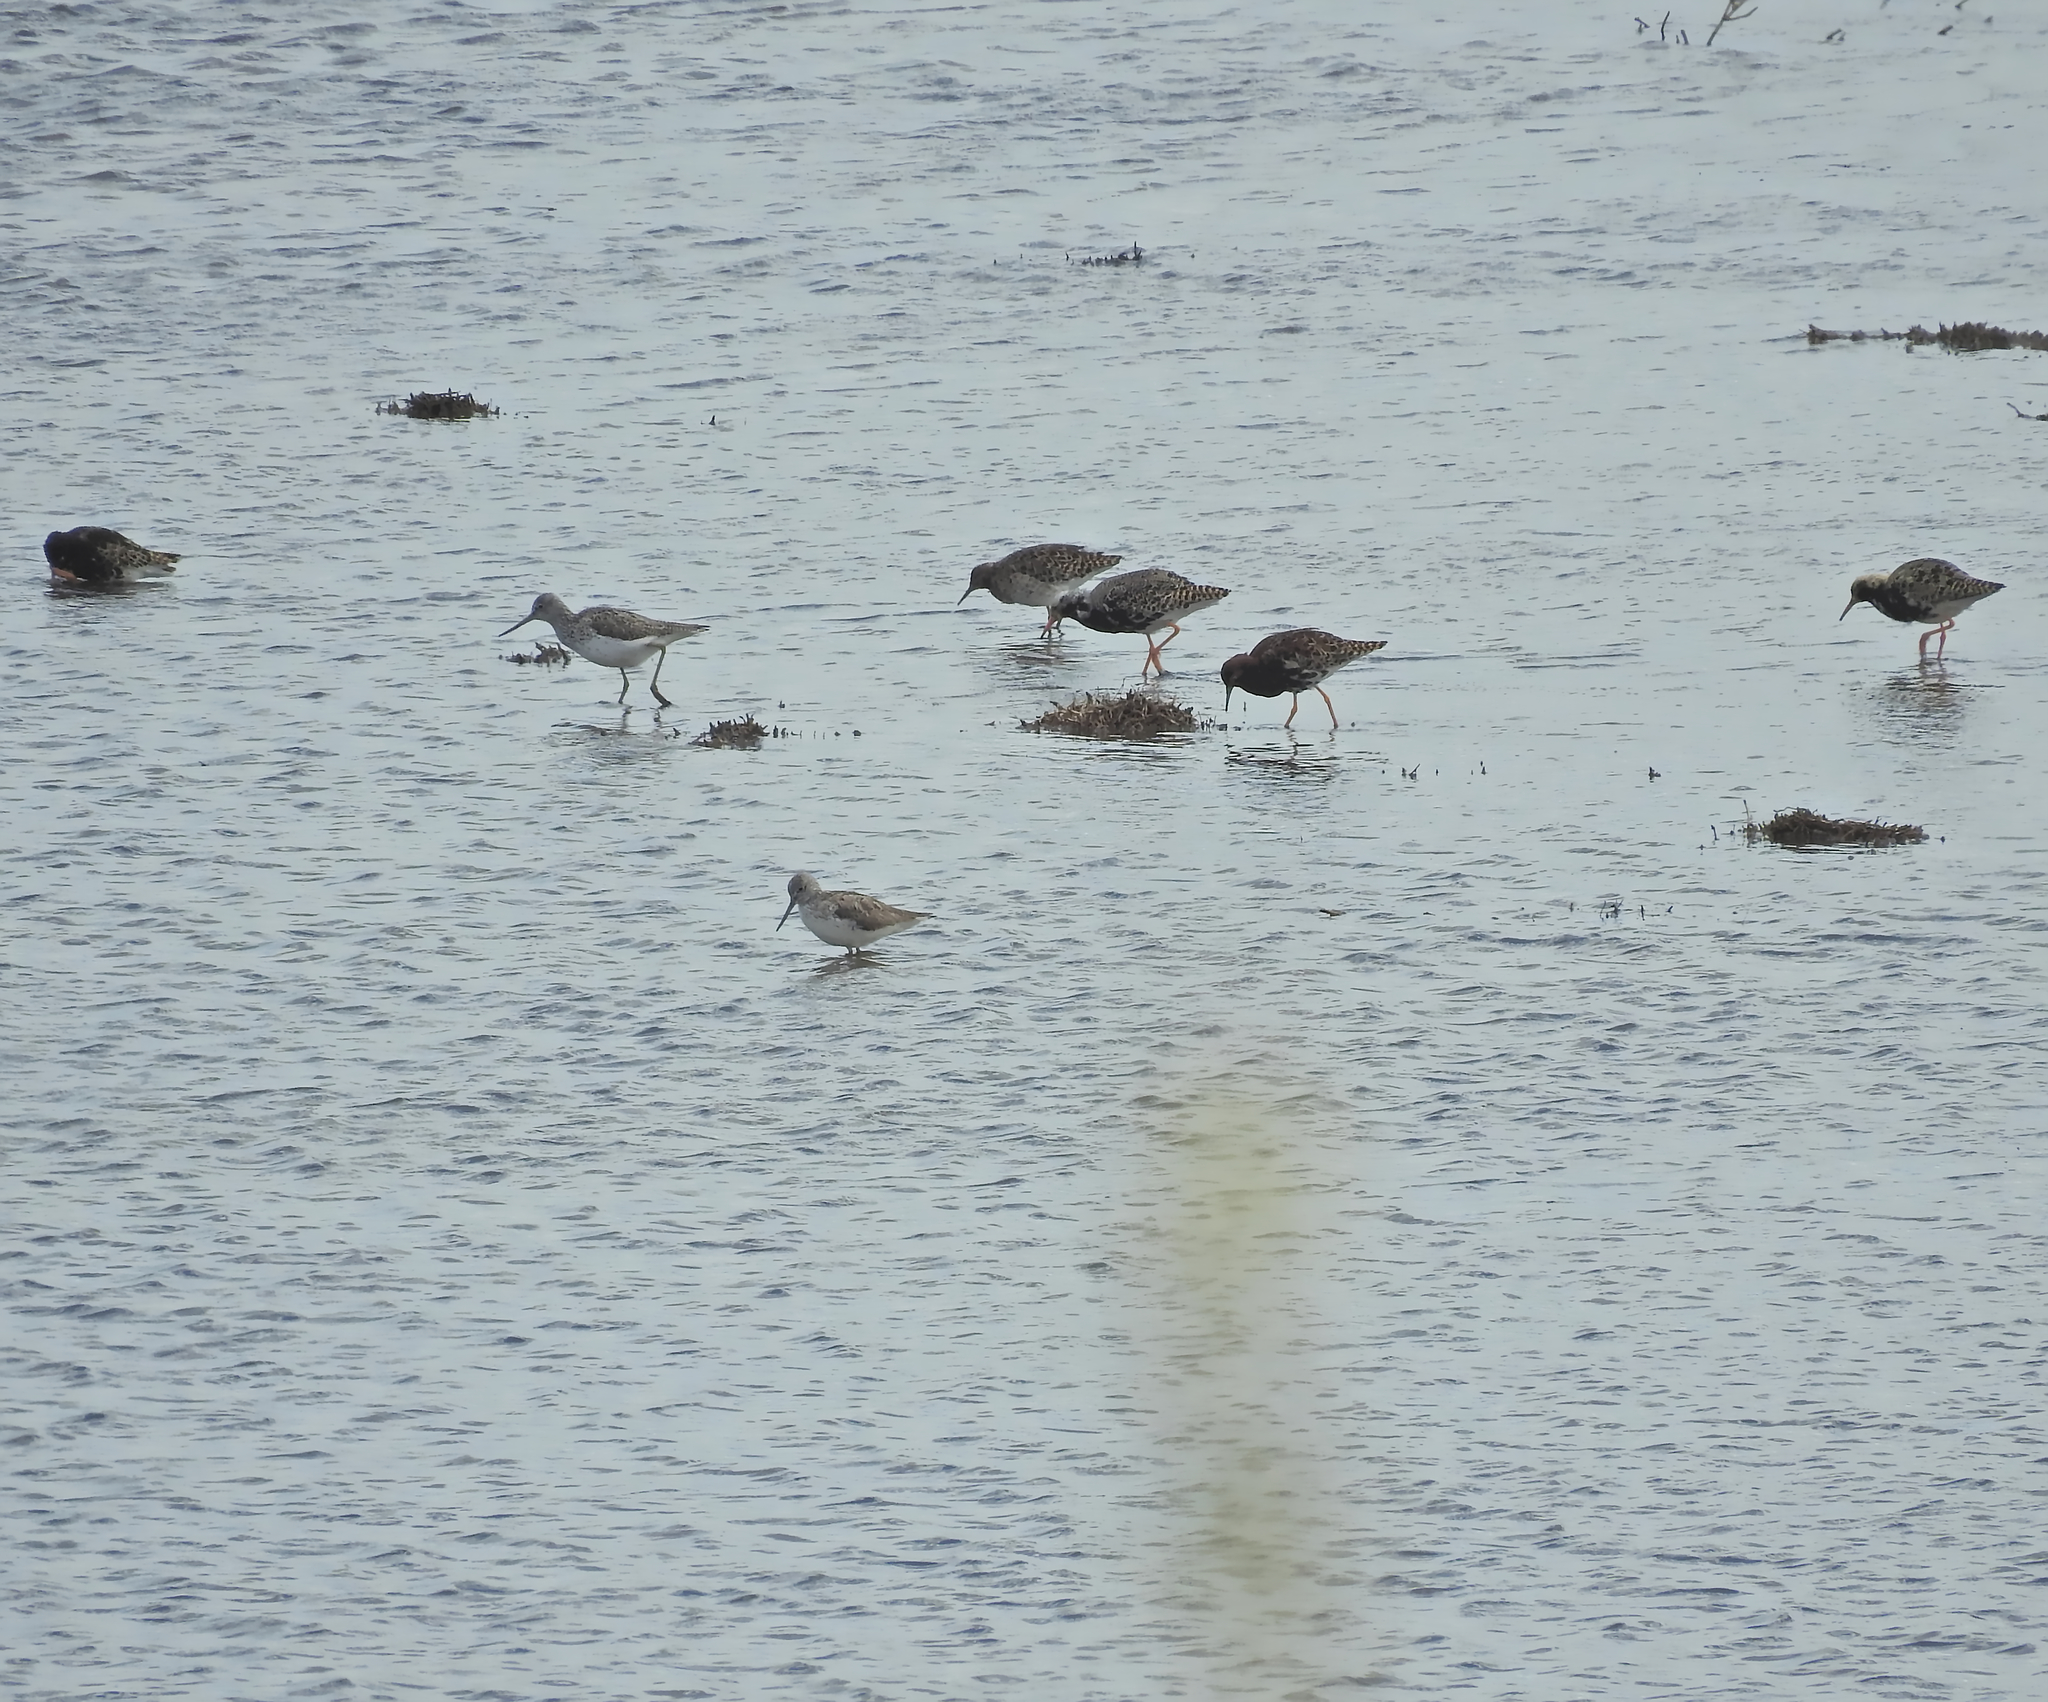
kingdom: Animalia
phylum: Chordata
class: Aves
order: Charadriiformes
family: Scolopacidae
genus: Calidris
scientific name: Calidris pugnax
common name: Ruff
